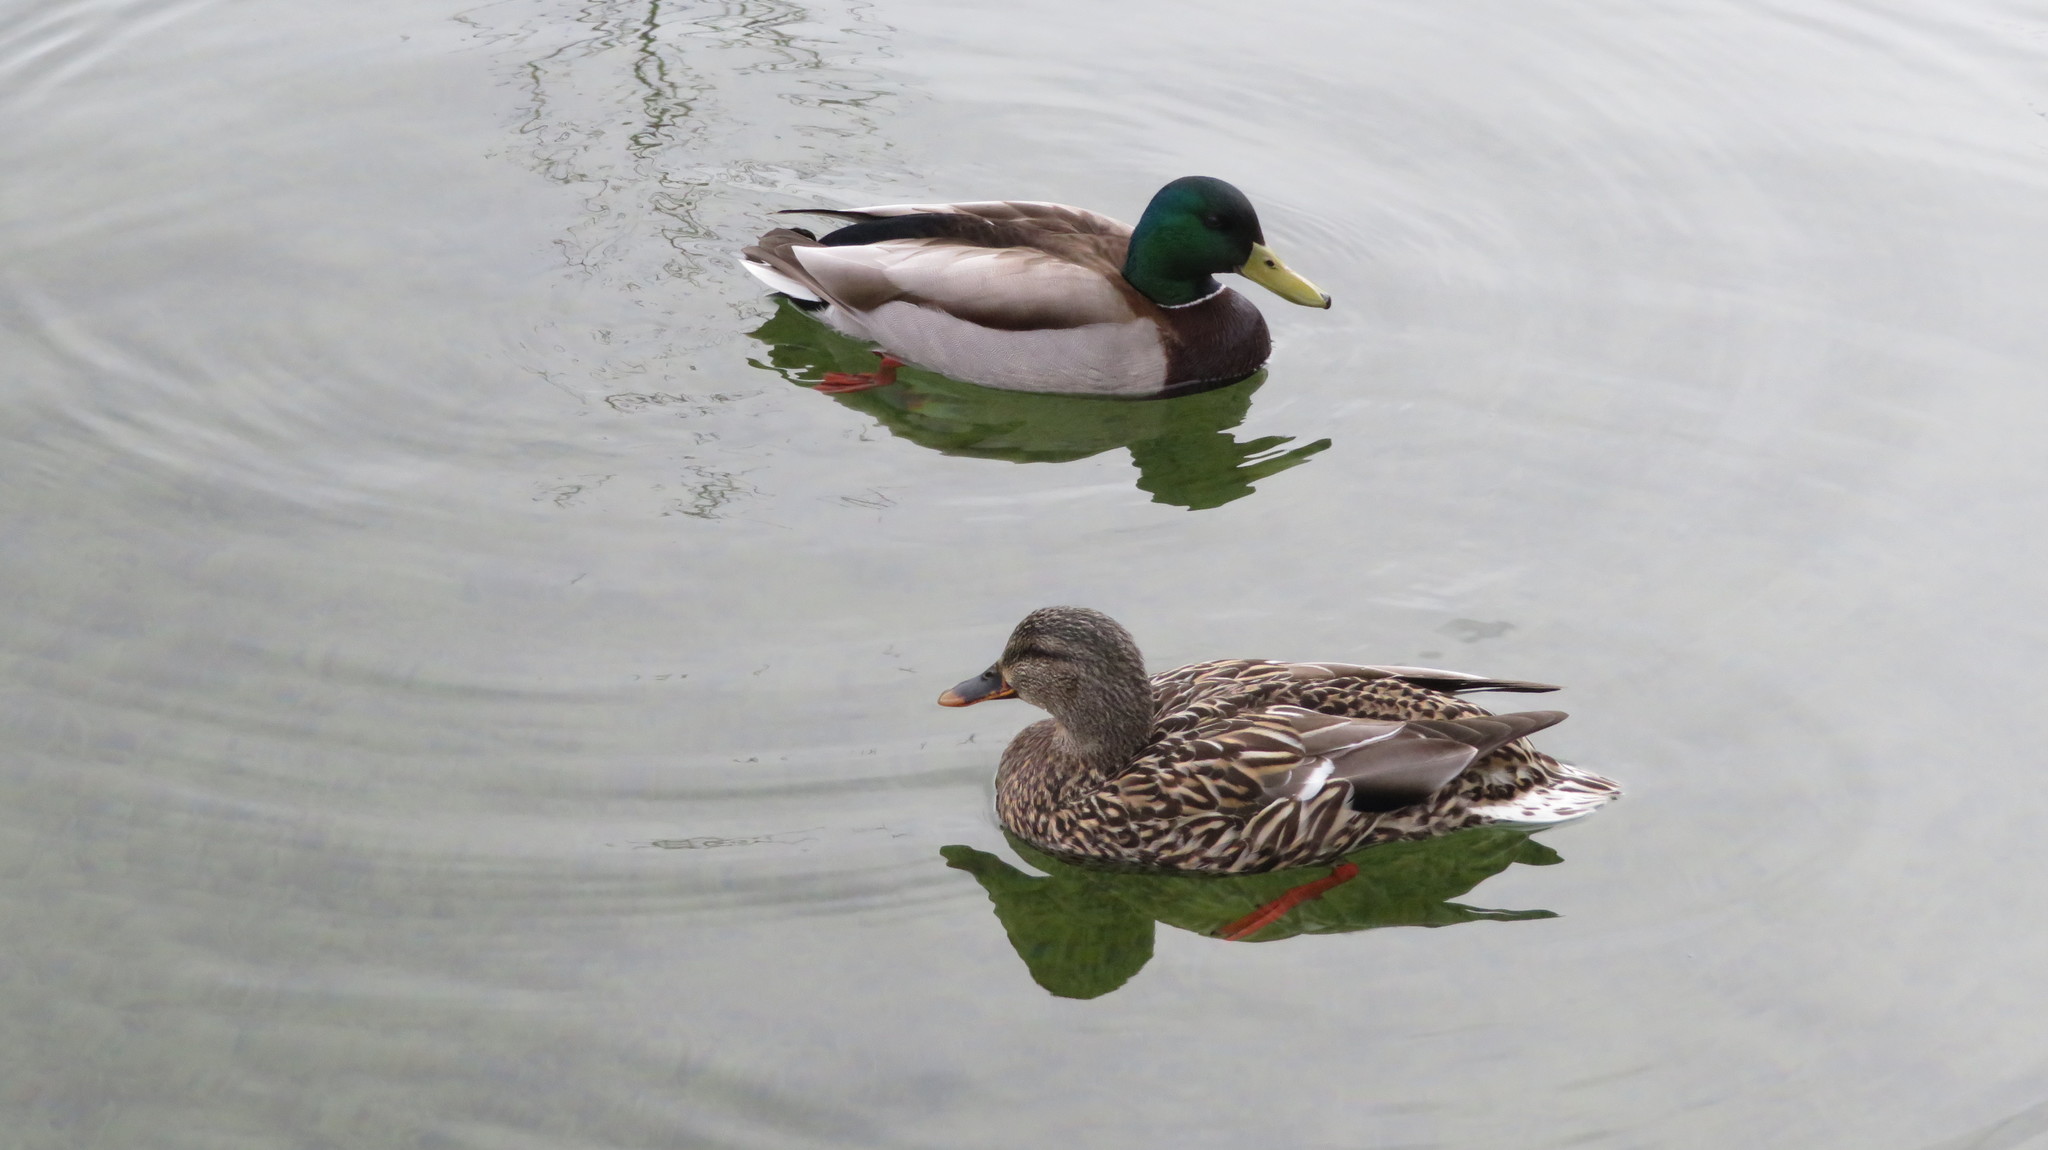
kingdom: Animalia
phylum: Chordata
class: Aves
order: Anseriformes
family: Anatidae
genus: Anas
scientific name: Anas platyrhynchos
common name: Mallard
